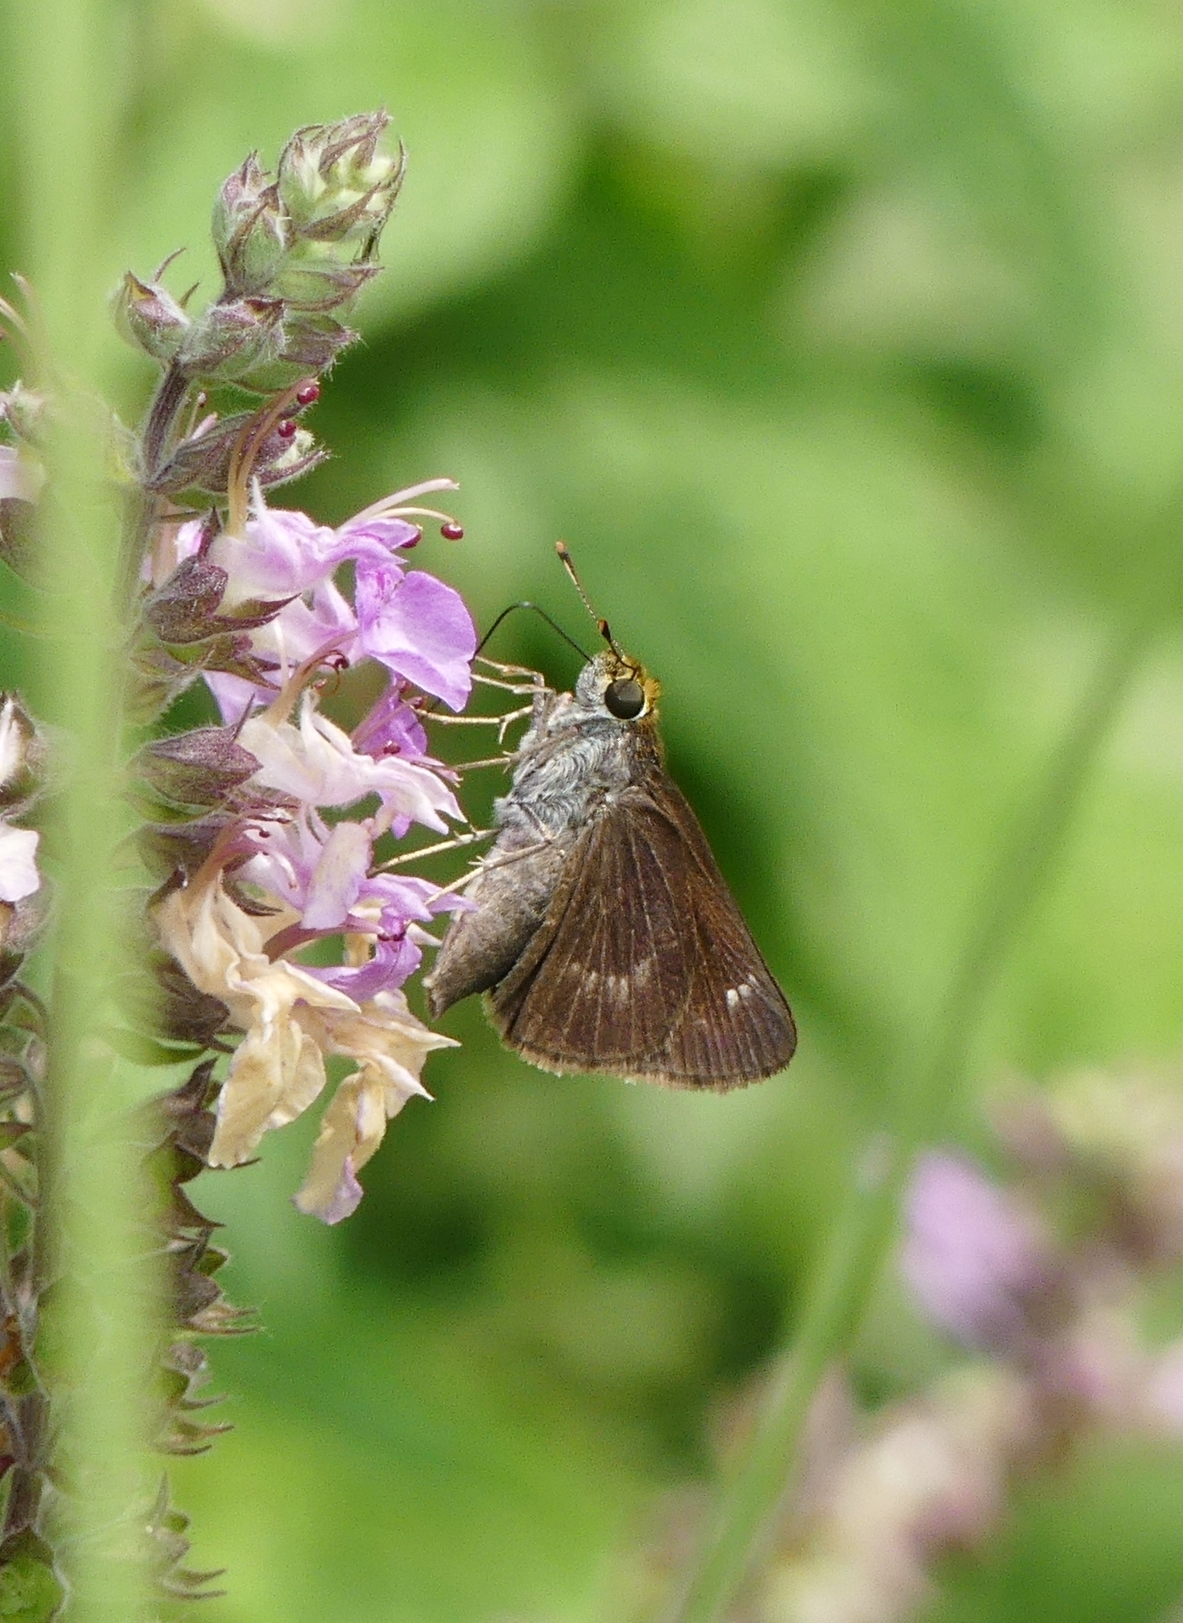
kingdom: Animalia
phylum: Arthropoda
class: Insecta
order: Lepidoptera
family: Hesperiidae
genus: Euphyes
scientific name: Euphyes vestris
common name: Dun skipper
